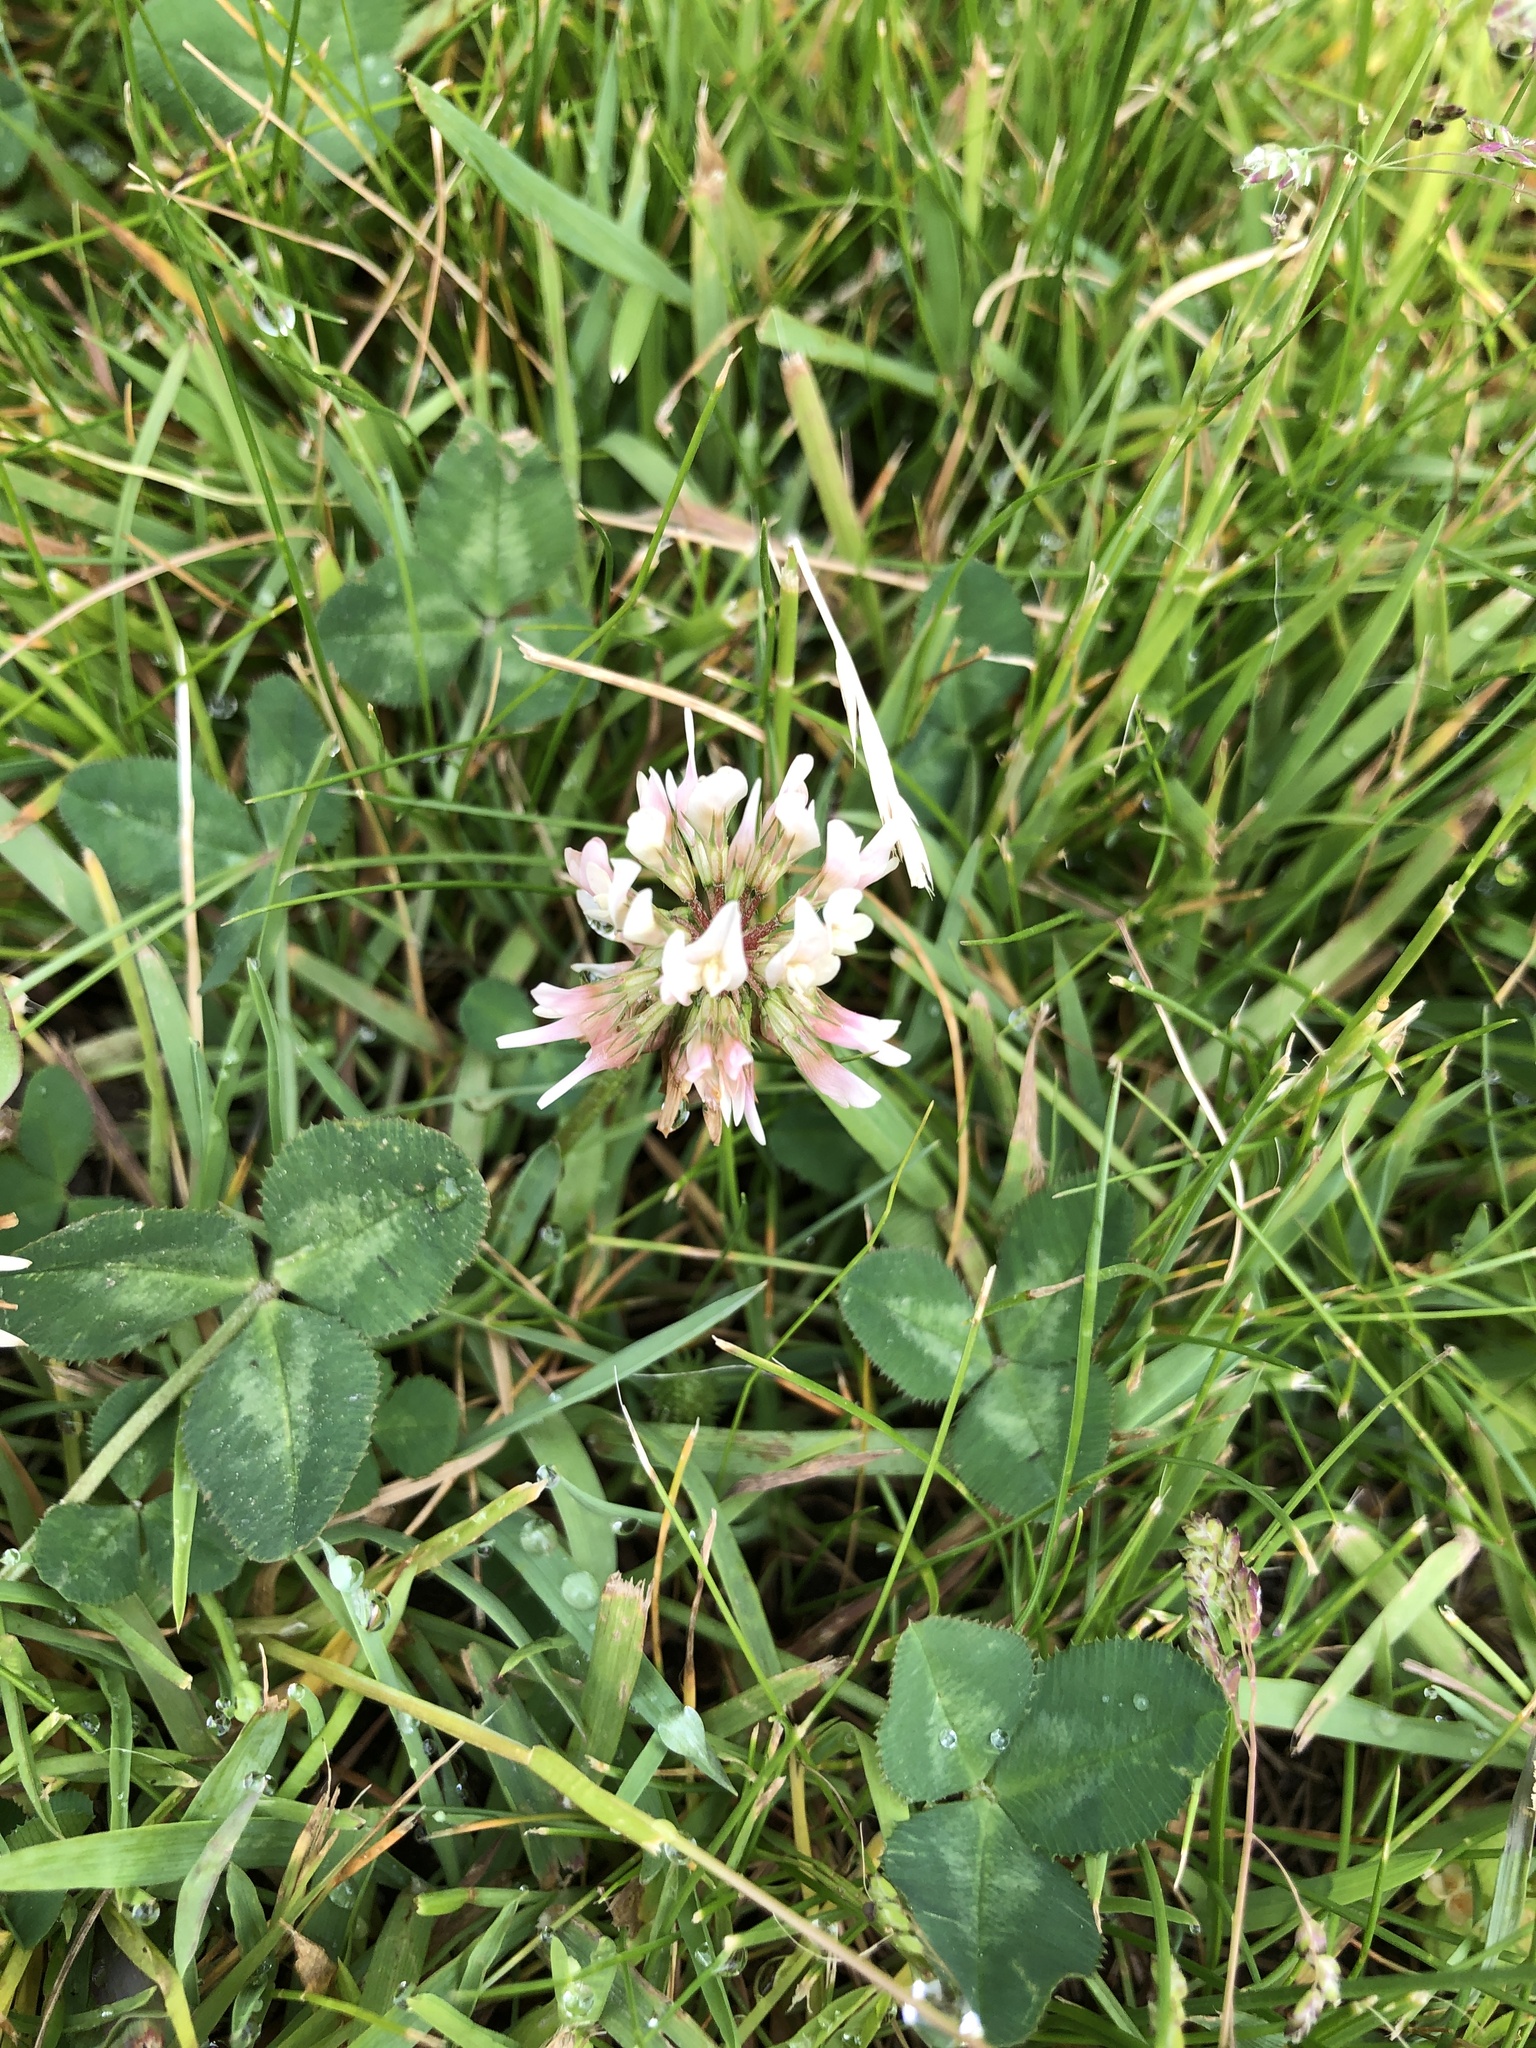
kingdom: Plantae
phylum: Tracheophyta
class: Magnoliopsida
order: Fabales
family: Fabaceae
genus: Trifolium
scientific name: Trifolium repens
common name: White clover
